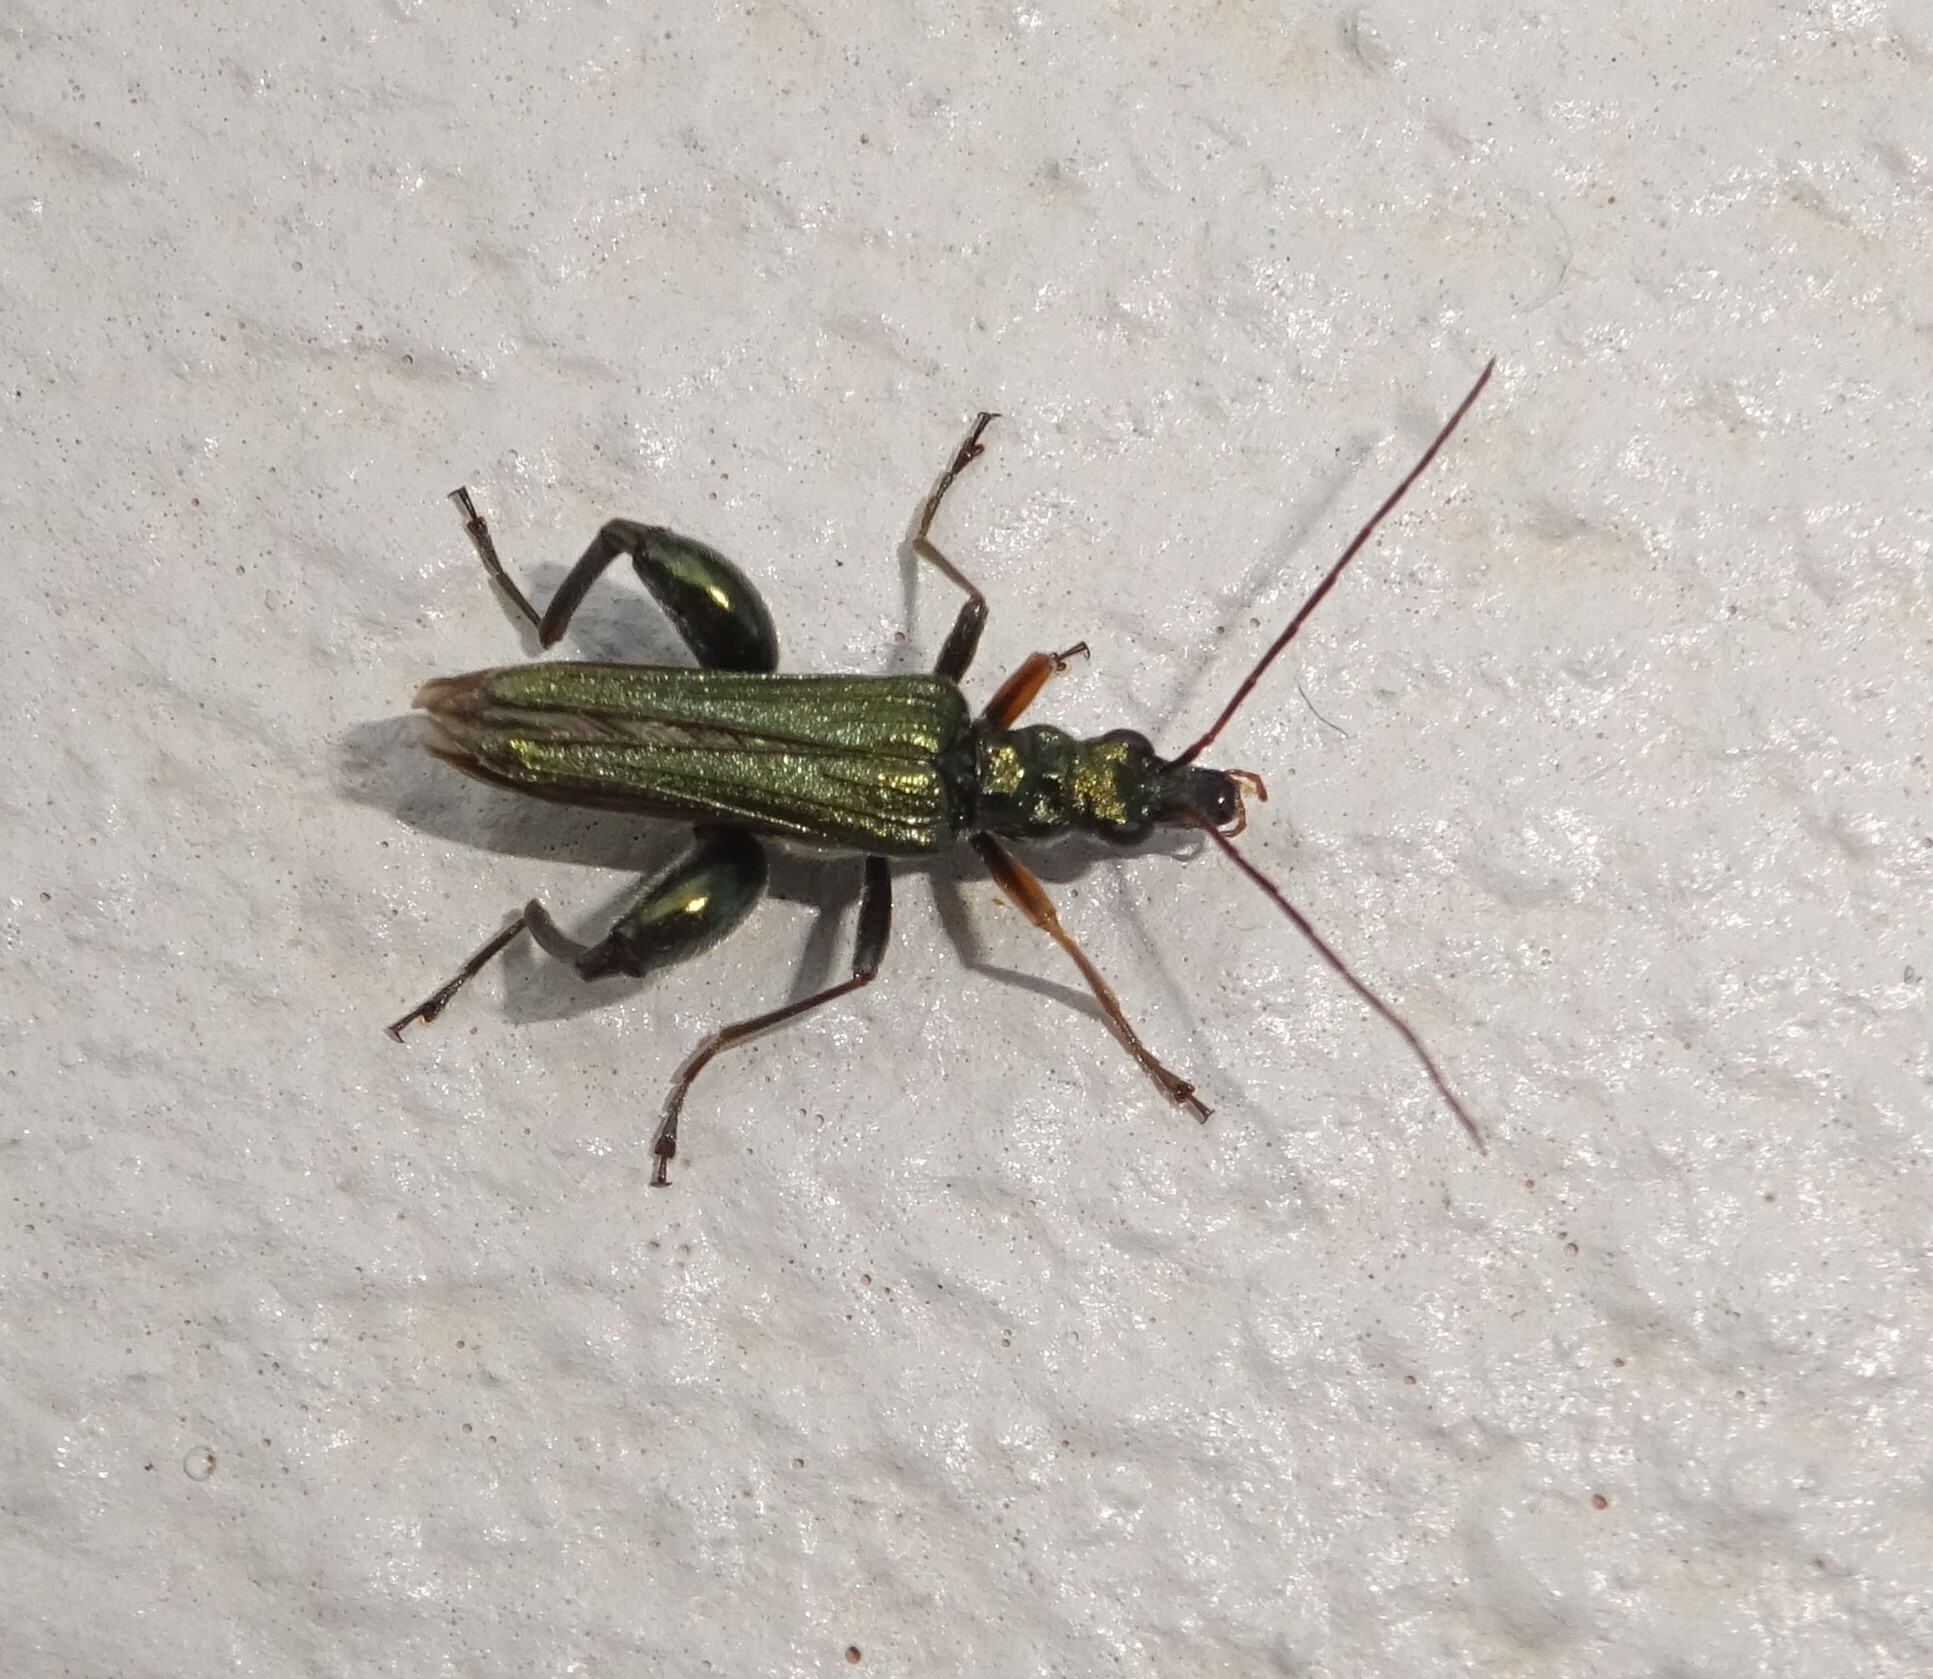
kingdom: Animalia
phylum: Arthropoda
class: Insecta
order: Coleoptera
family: Oedemeridae
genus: Oedemera
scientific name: Oedemera flavipes
